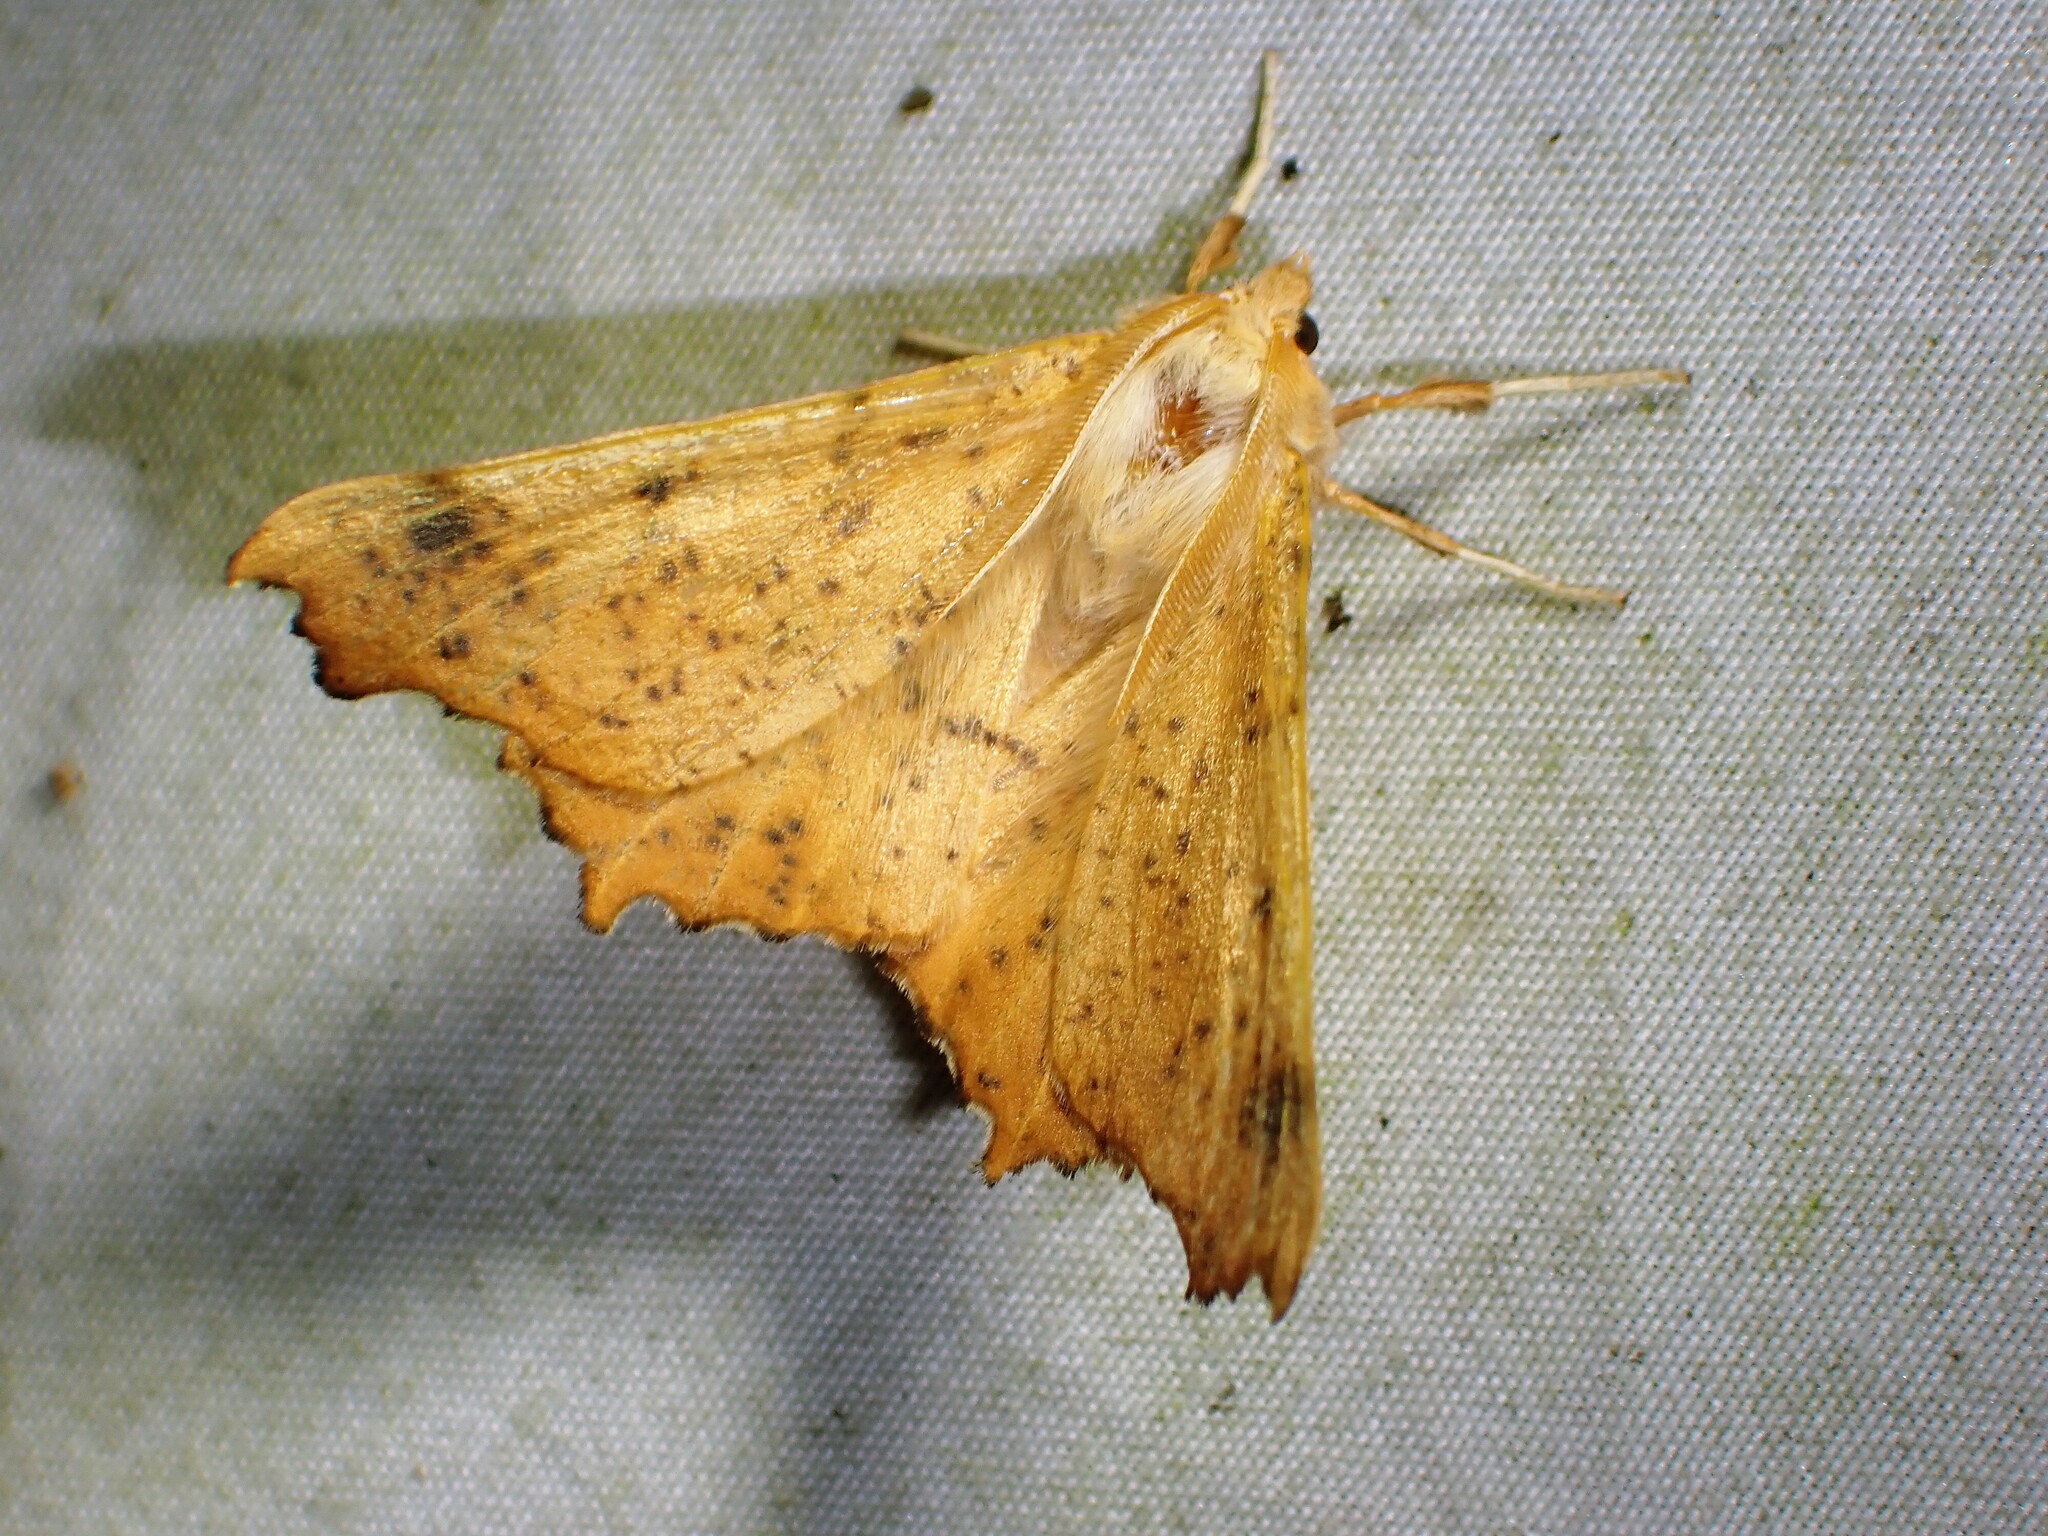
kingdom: Animalia
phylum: Arthropoda
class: Insecta
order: Lepidoptera
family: Geometridae
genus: Ennomos
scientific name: Ennomos magnaria
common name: Maple spanworm
